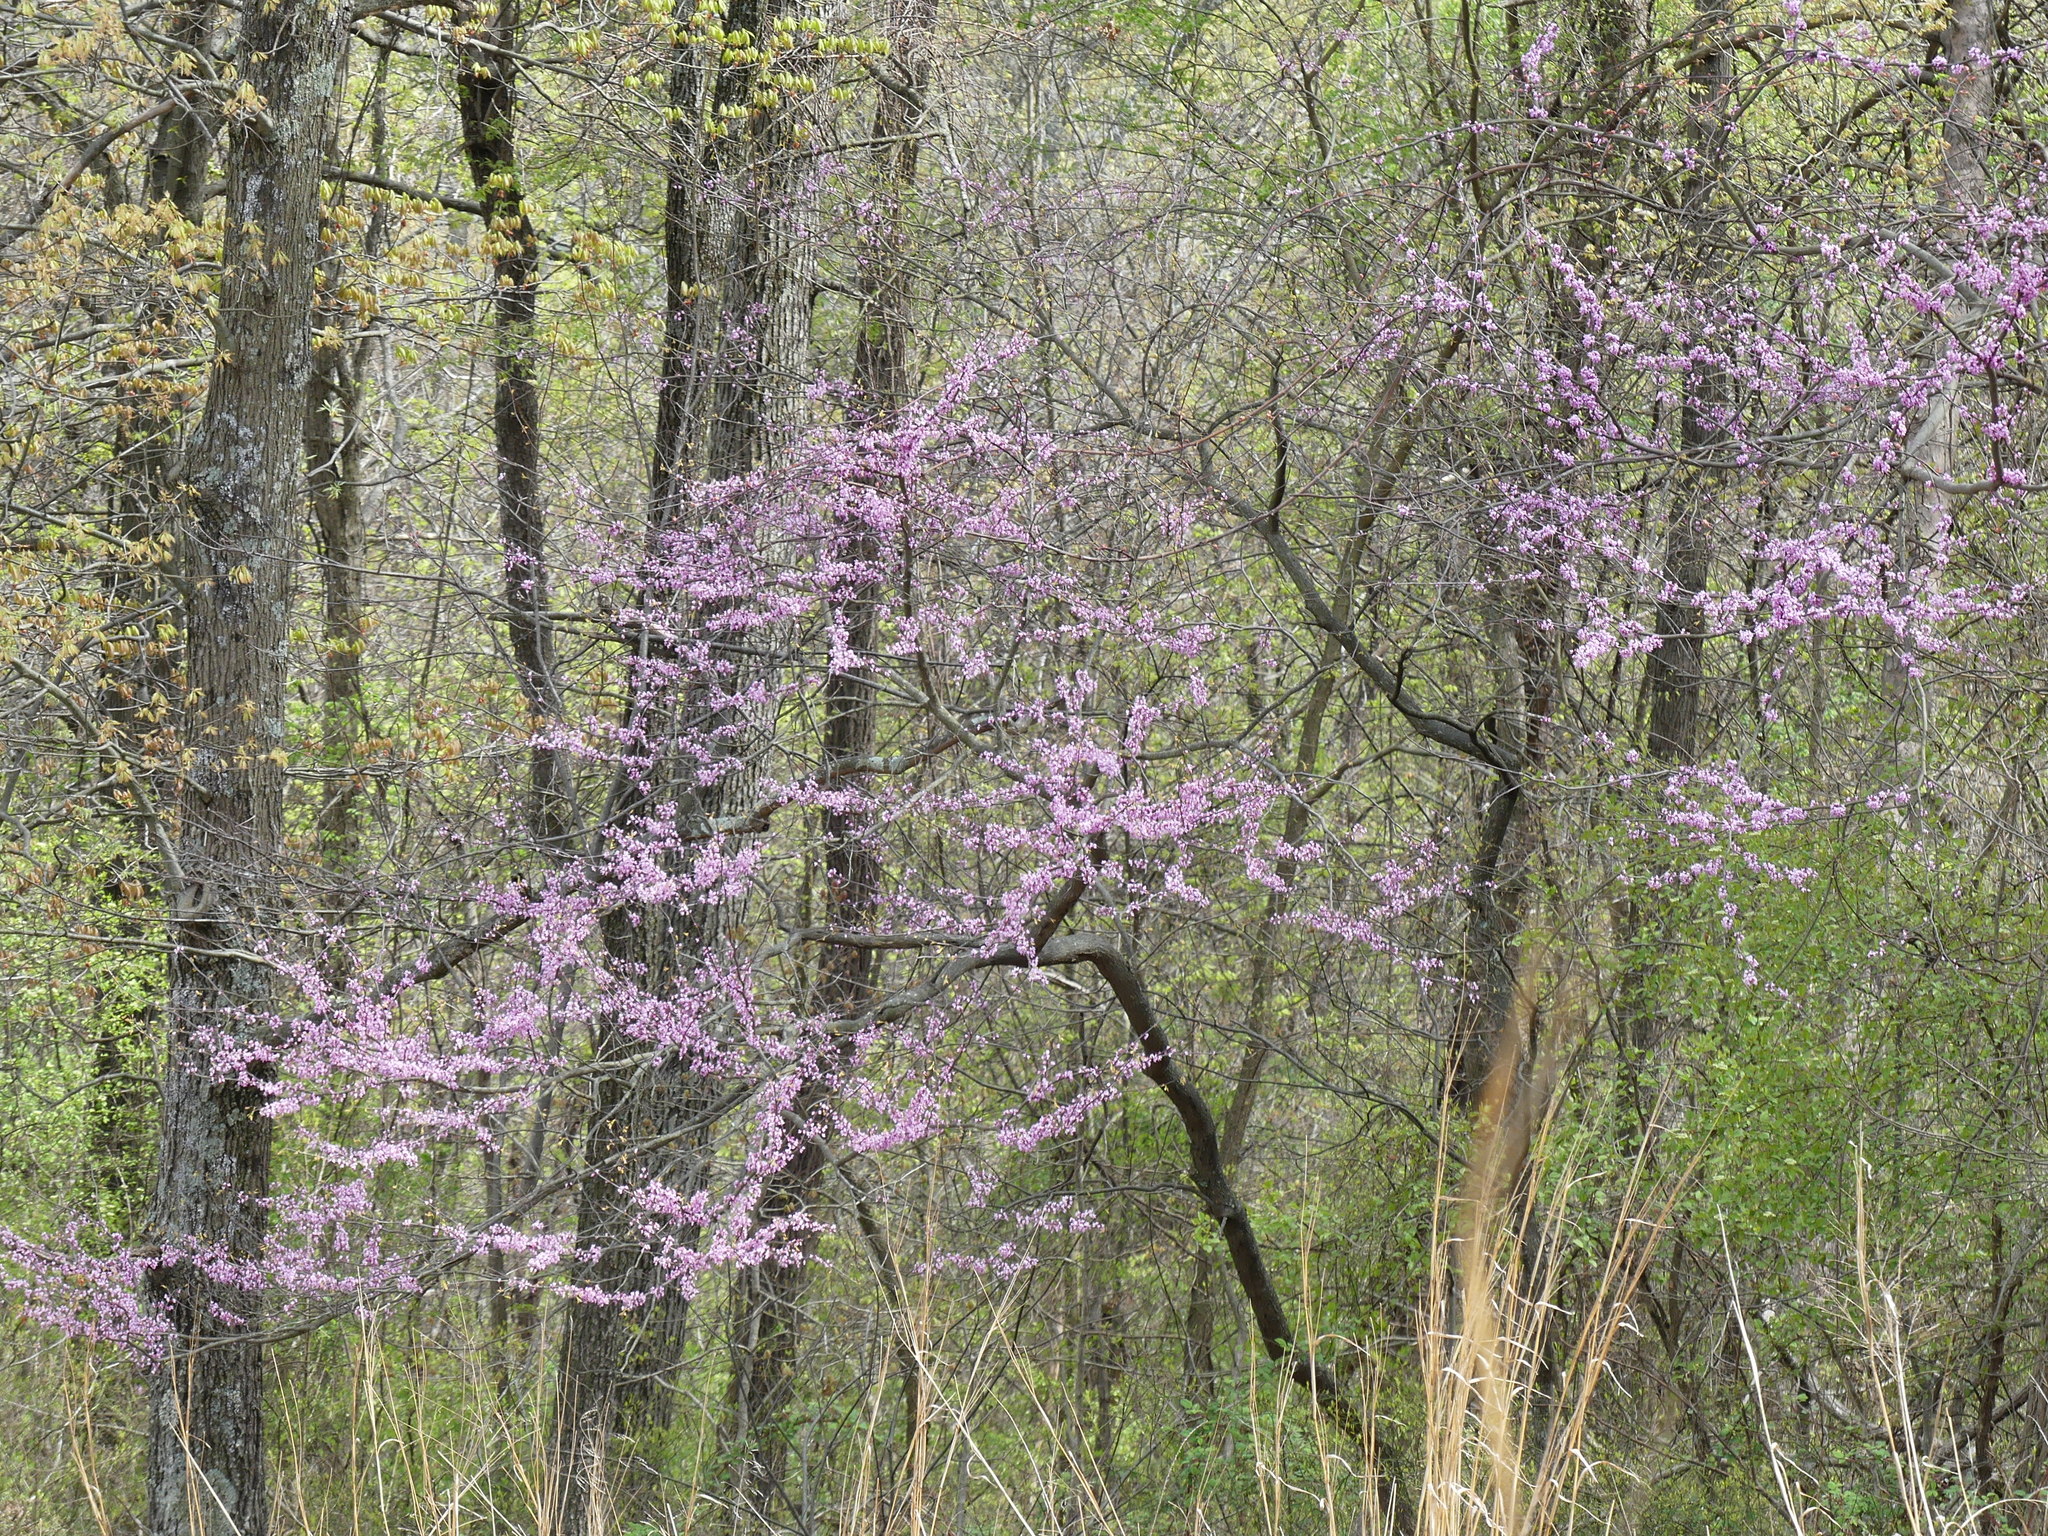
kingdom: Plantae
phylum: Tracheophyta
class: Magnoliopsida
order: Fabales
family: Fabaceae
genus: Cercis
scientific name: Cercis canadensis
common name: Eastern redbud
